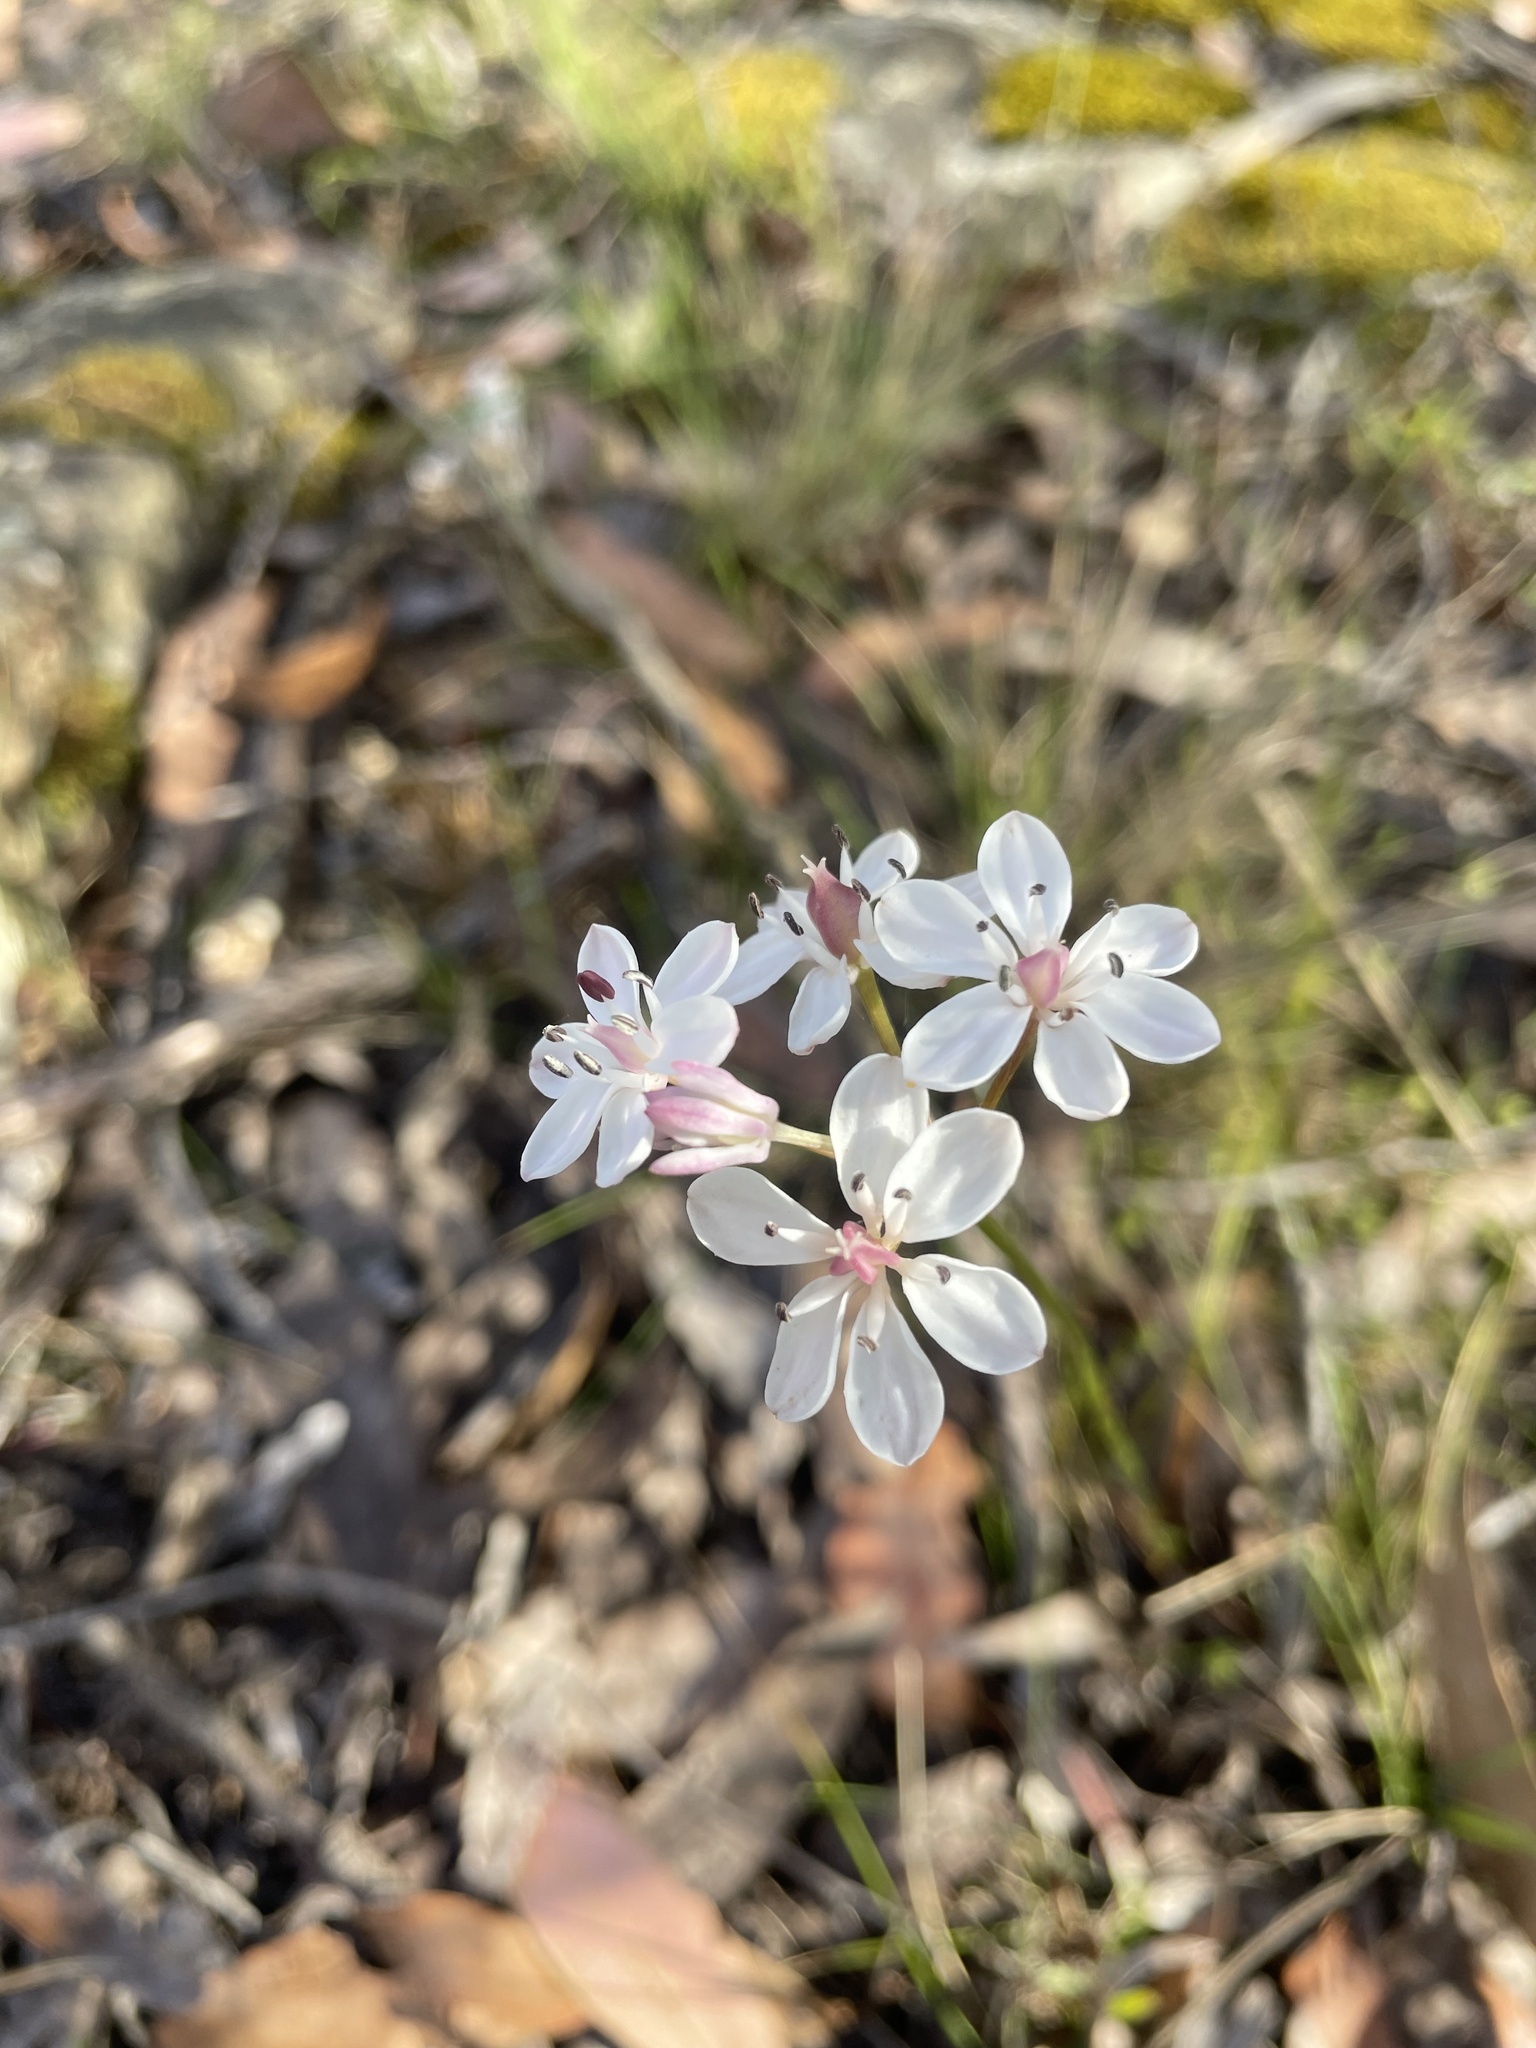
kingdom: Plantae
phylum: Tracheophyta
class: Liliopsida
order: Liliales
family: Colchicaceae
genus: Burchardia
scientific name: Burchardia umbellata
